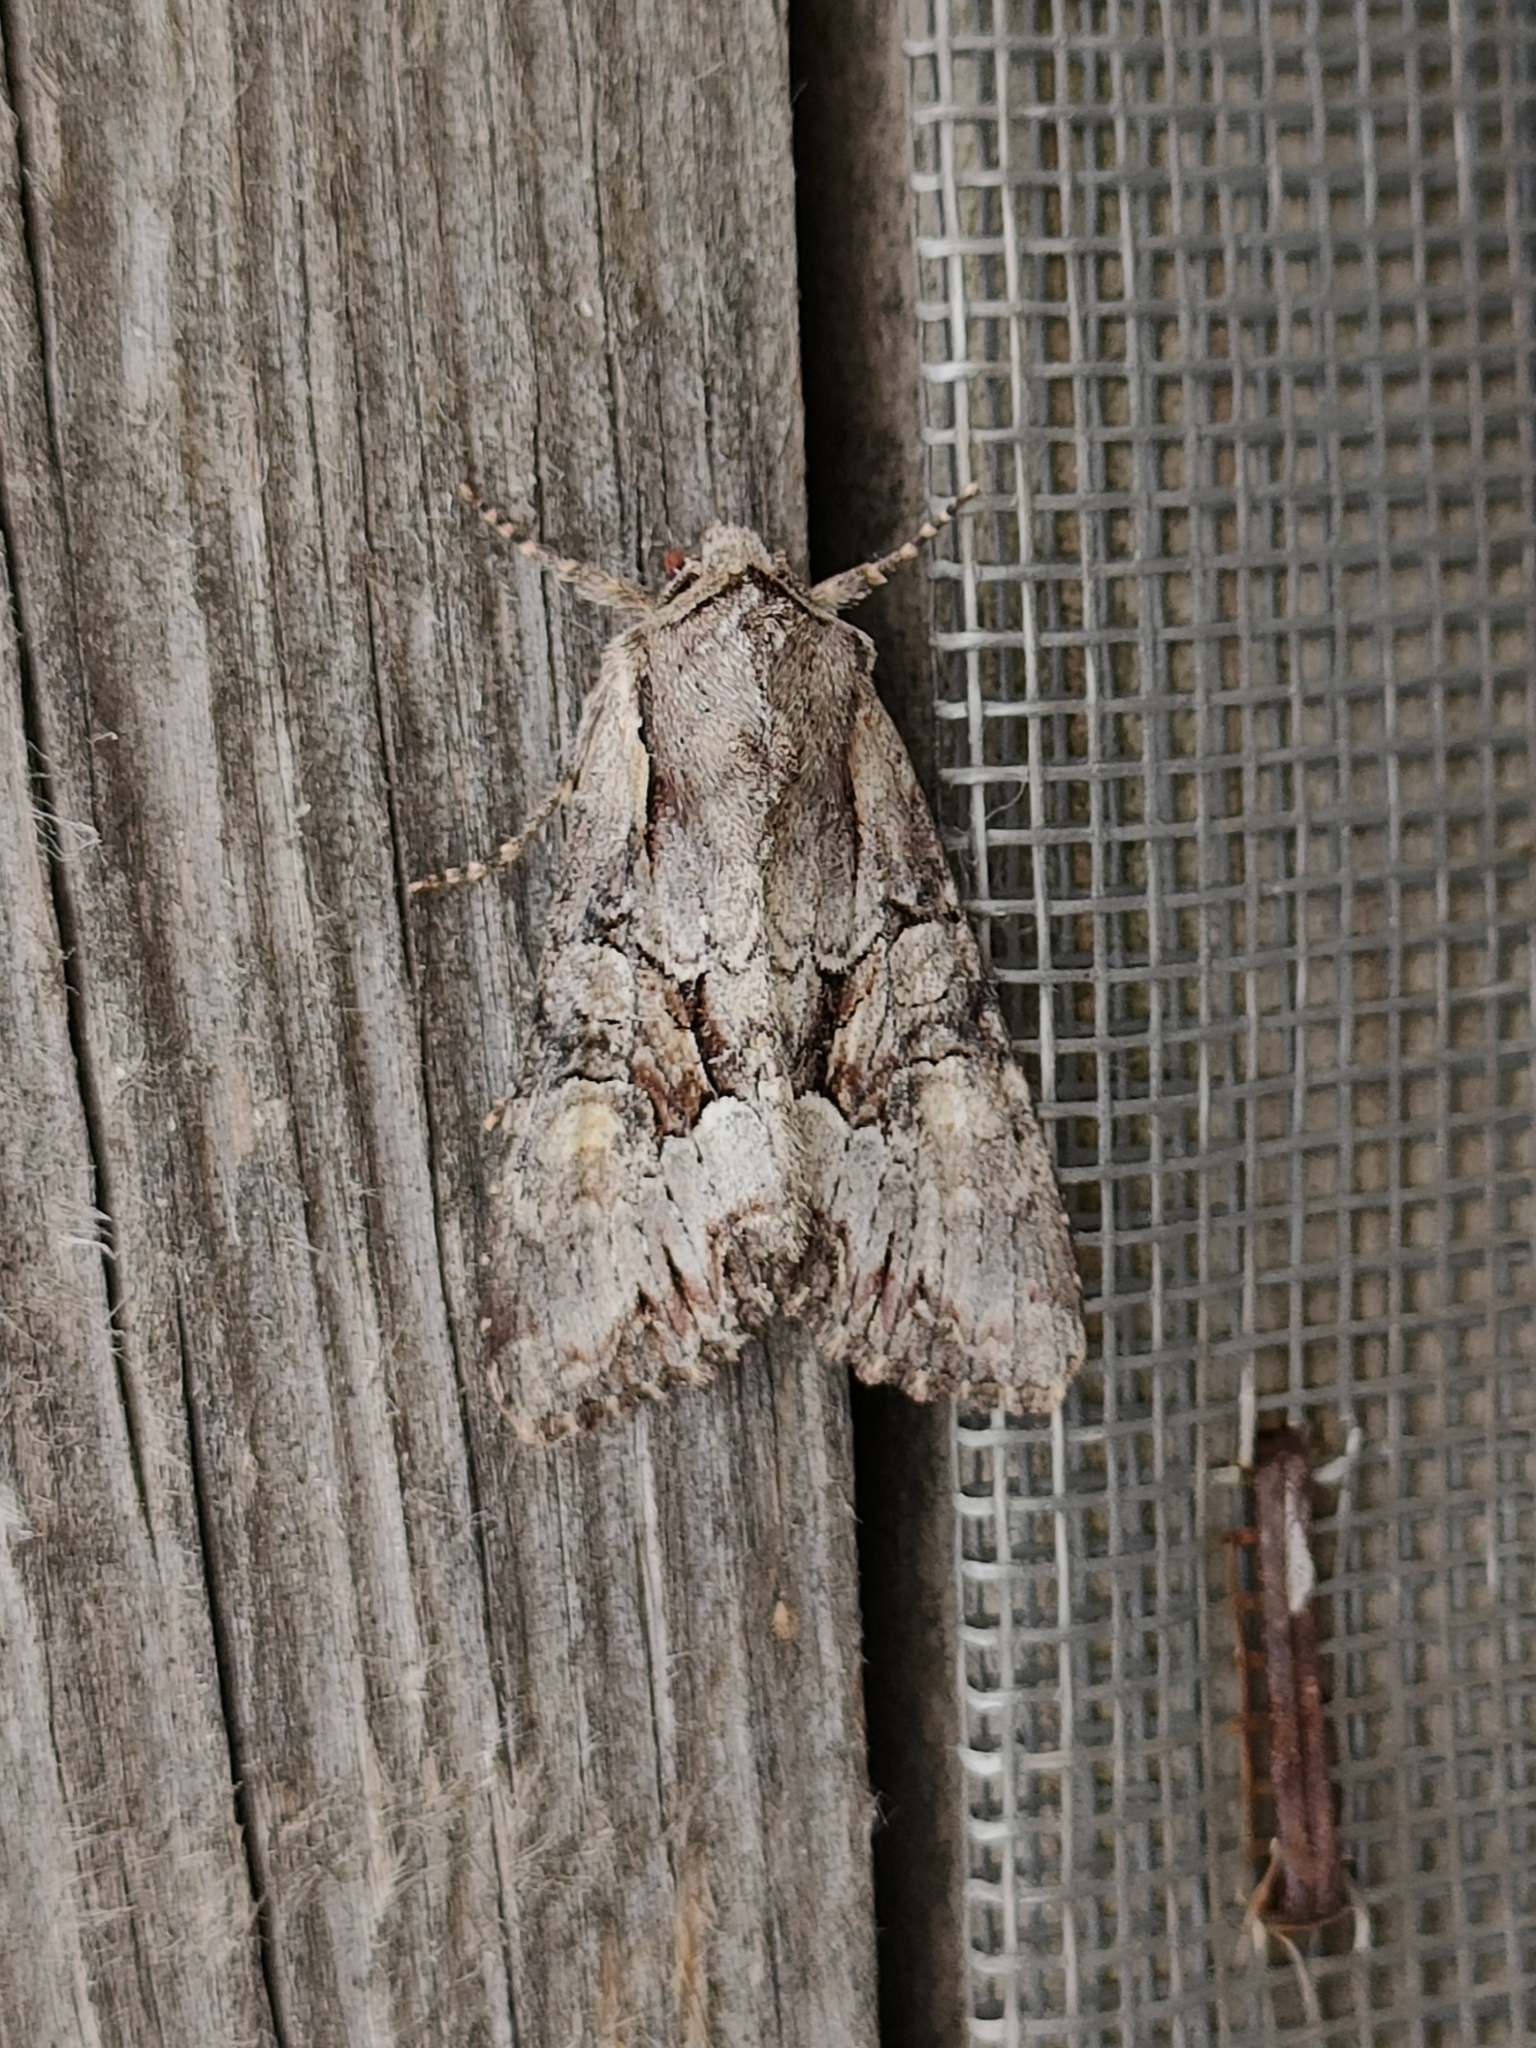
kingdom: Animalia
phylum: Arthropoda
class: Insecta
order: Lepidoptera
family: Noctuidae
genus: Lacanobia
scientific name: Lacanobia w-latinum
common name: Light brocade
